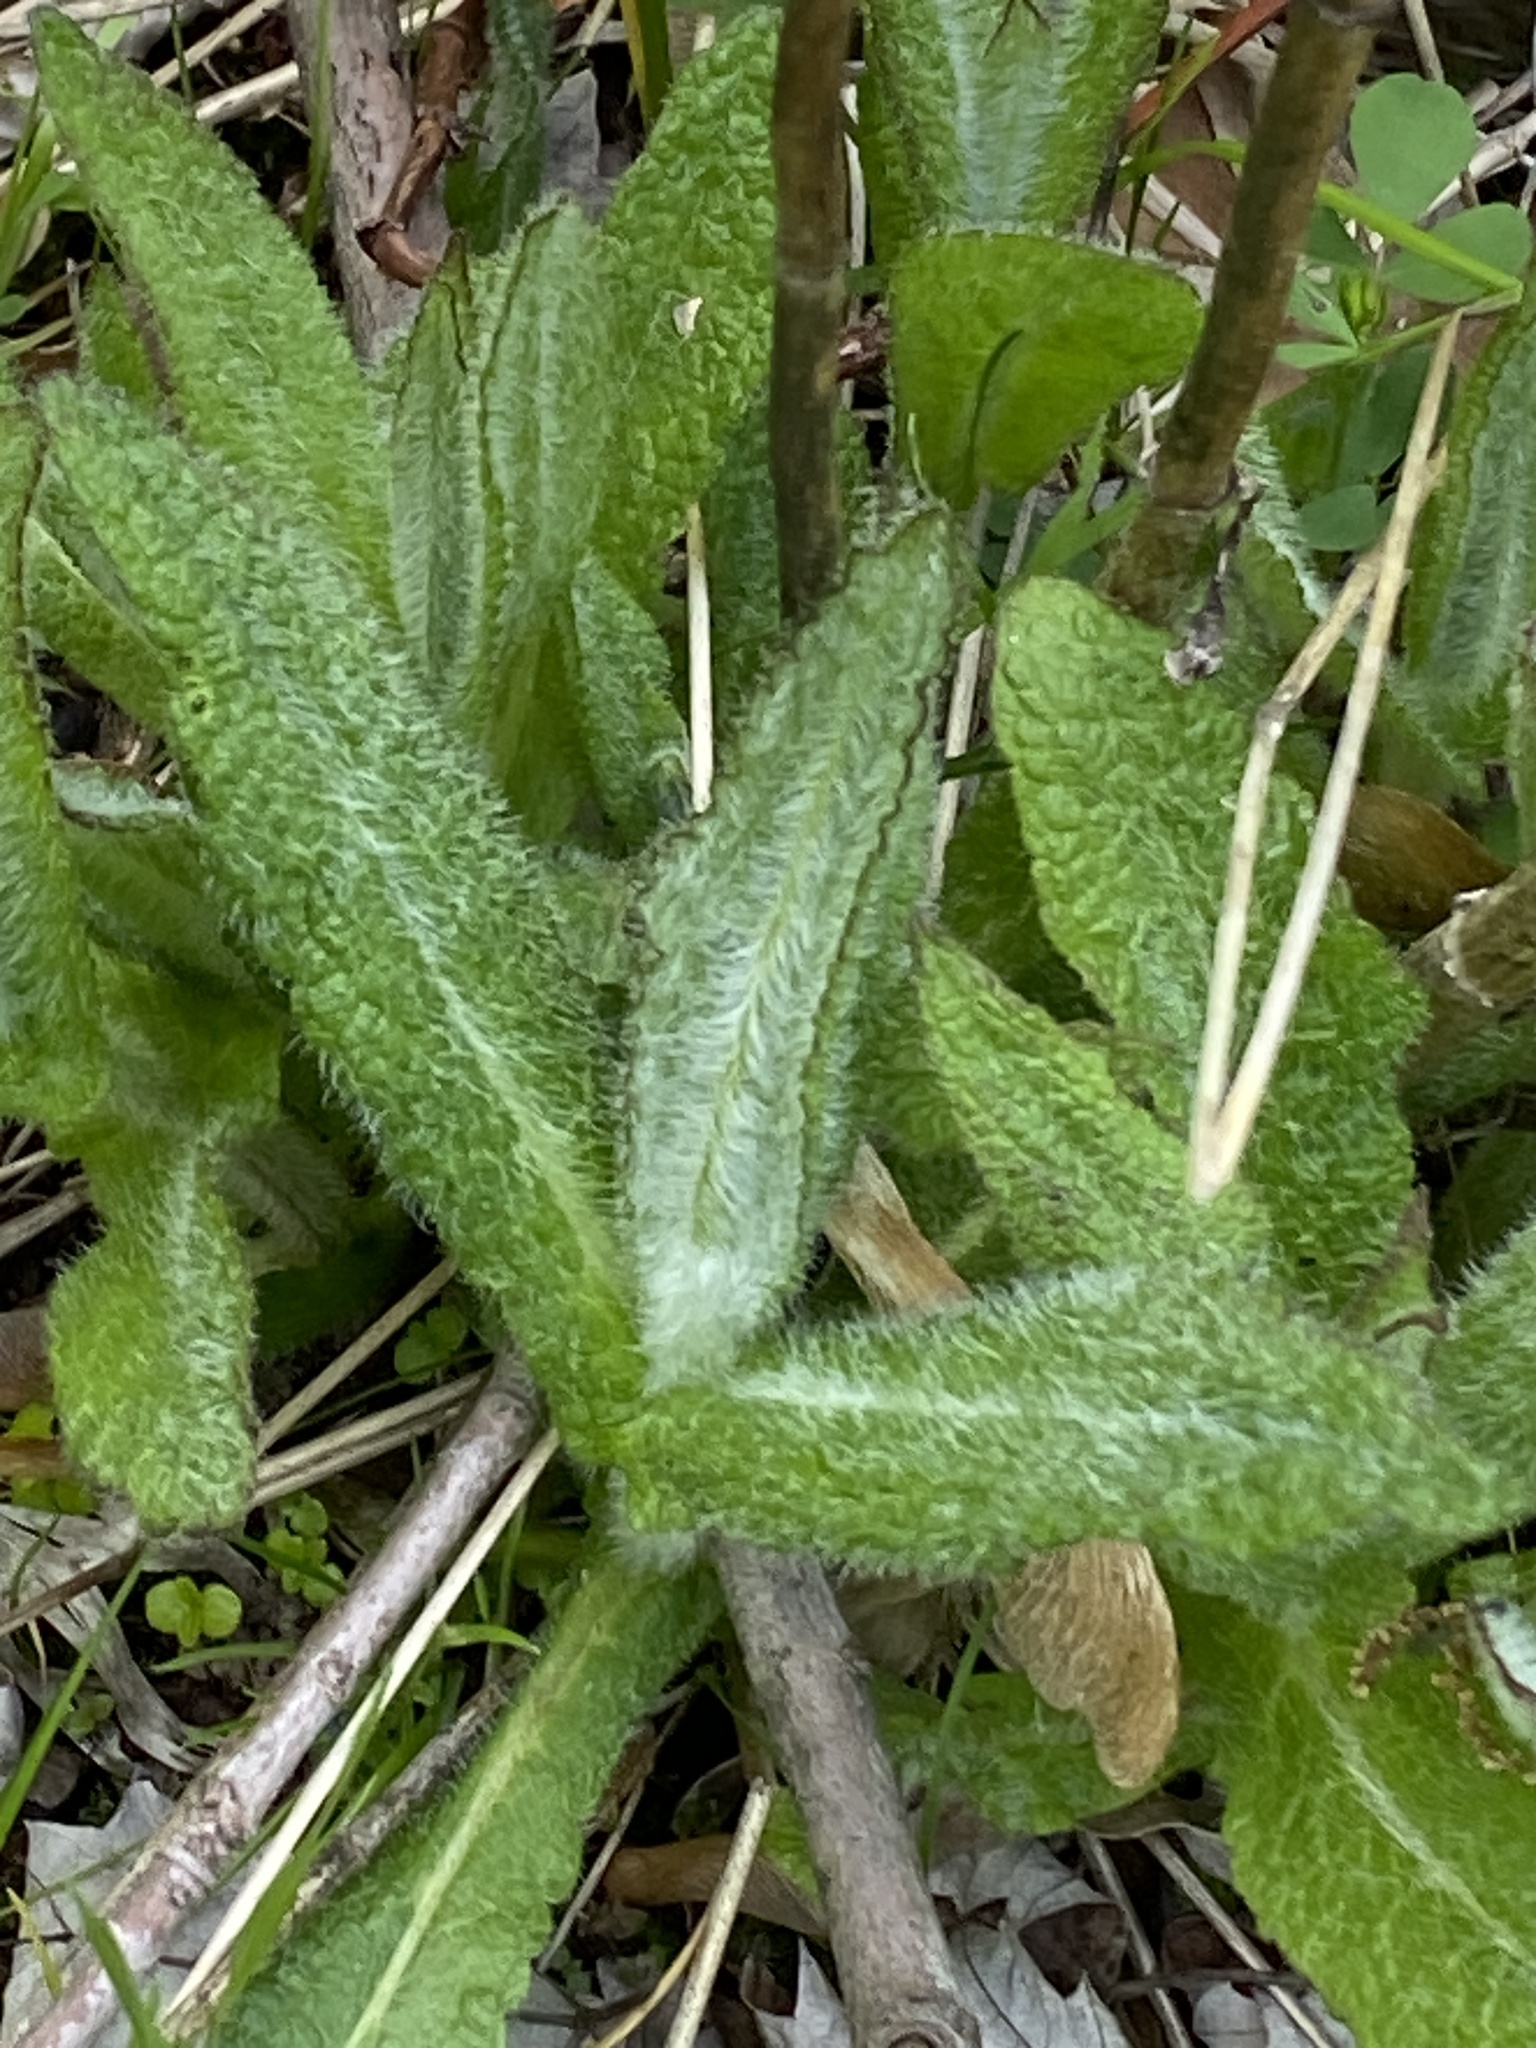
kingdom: Plantae
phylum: Tracheophyta
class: Magnoliopsida
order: Asterales
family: Asteraceae
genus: Eupatorium
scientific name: Eupatorium perfoliatum
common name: Boneset
